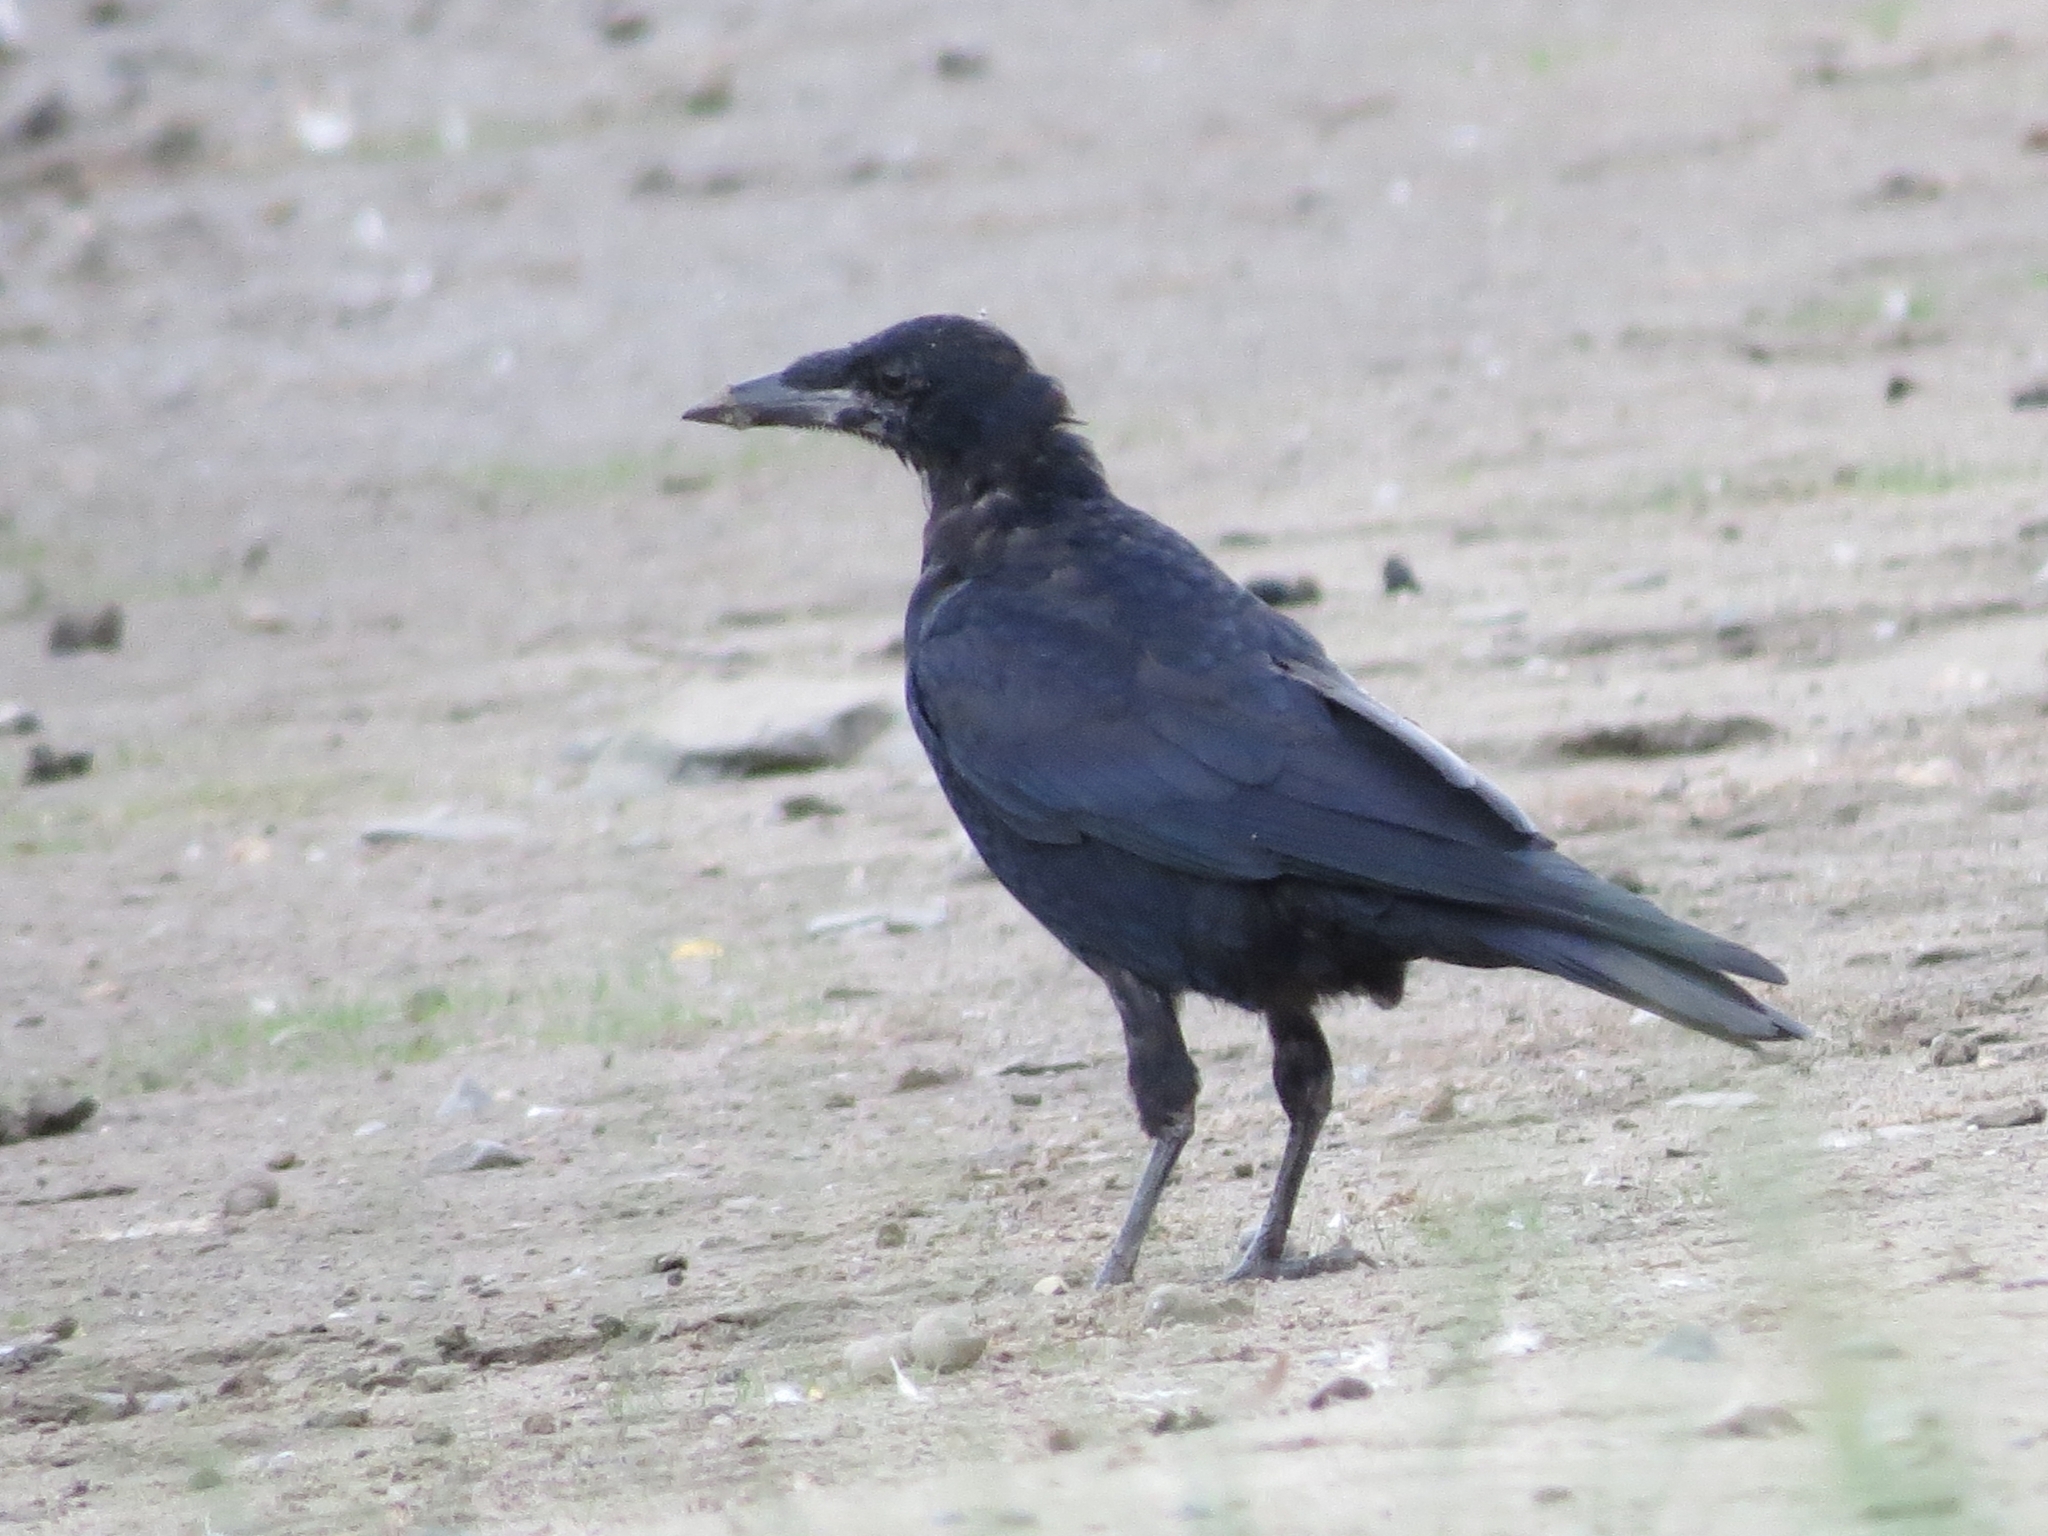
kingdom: Animalia
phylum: Chordata
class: Aves
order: Passeriformes
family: Corvidae
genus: Corvus
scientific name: Corvus frugilegus
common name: Rook
